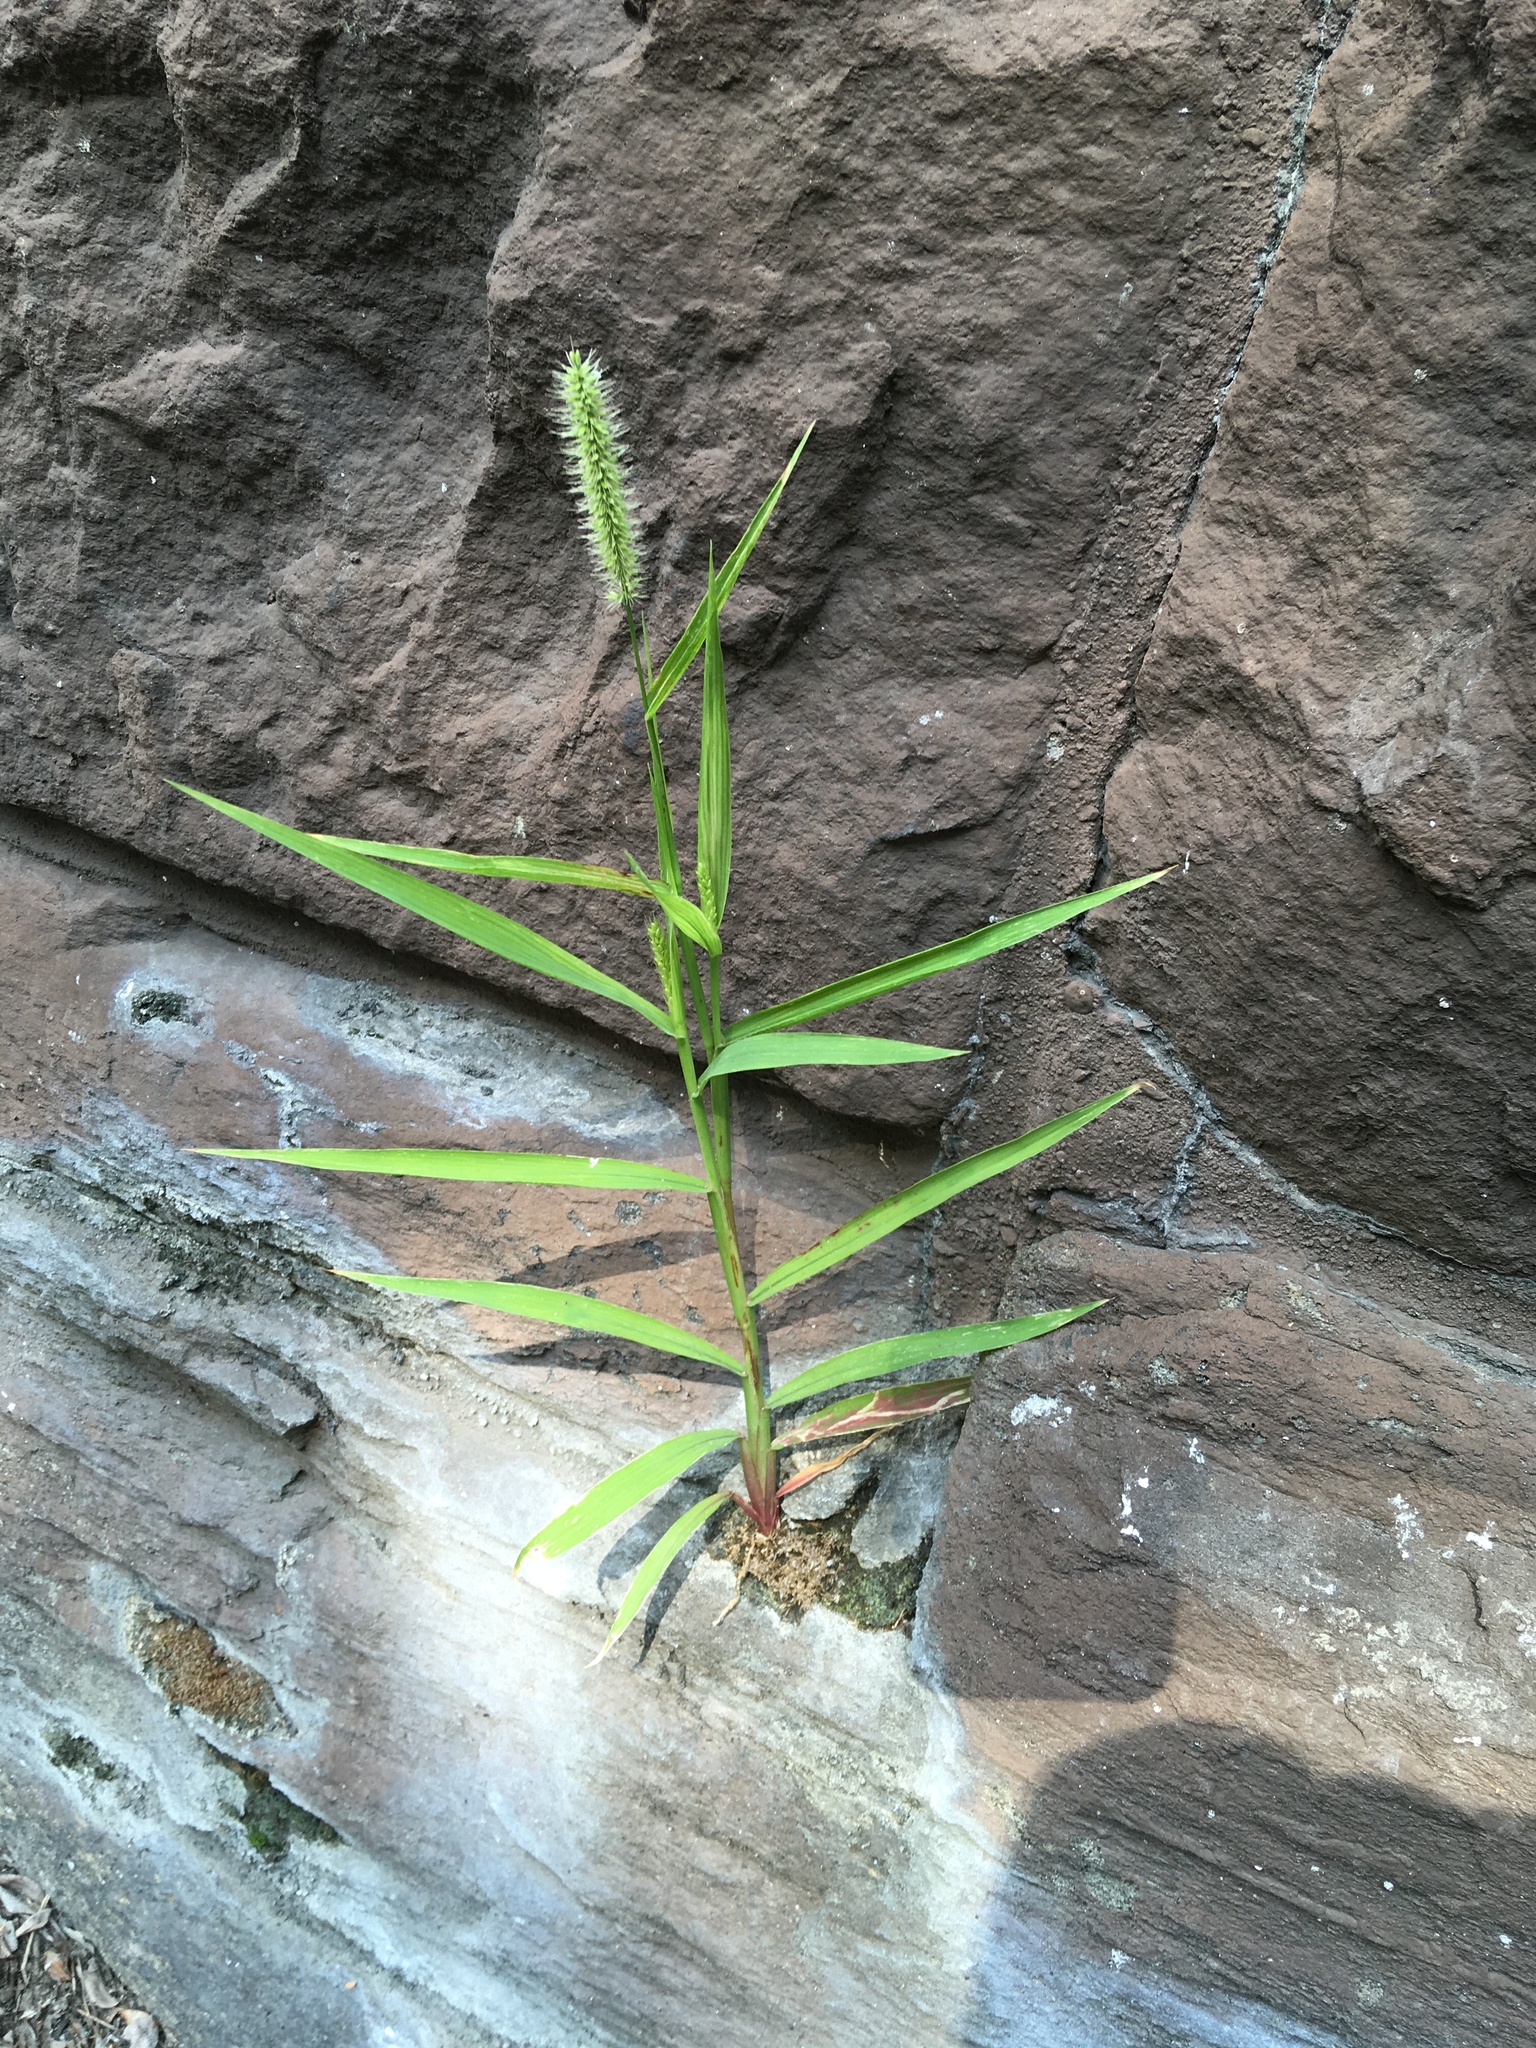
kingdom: Plantae
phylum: Tracheophyta
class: Liliopsida
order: Poales
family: Poaceae
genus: Setaria
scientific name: Setaria viridis
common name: Green bristlegrass
